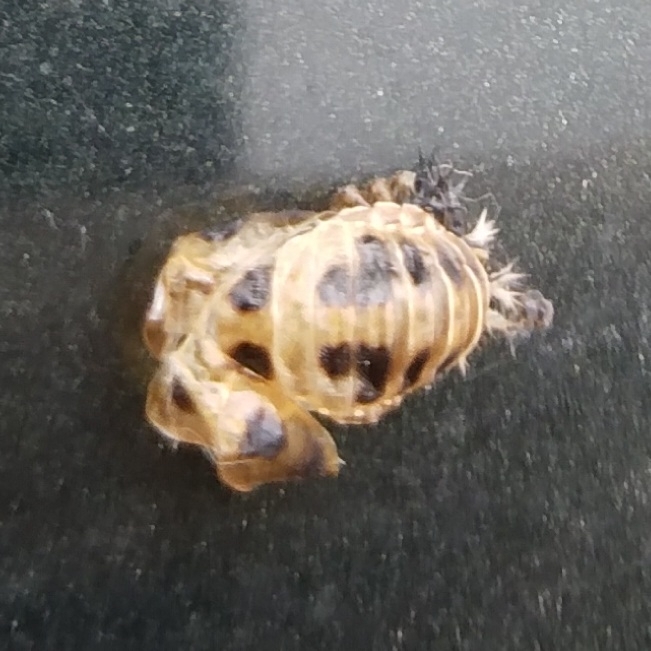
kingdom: Animalia
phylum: Arthropoda
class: Insecta
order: Coleoptera
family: Coccinellidae
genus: Harmonia
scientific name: Harmonia axyridis
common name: Harlequin ladybird
